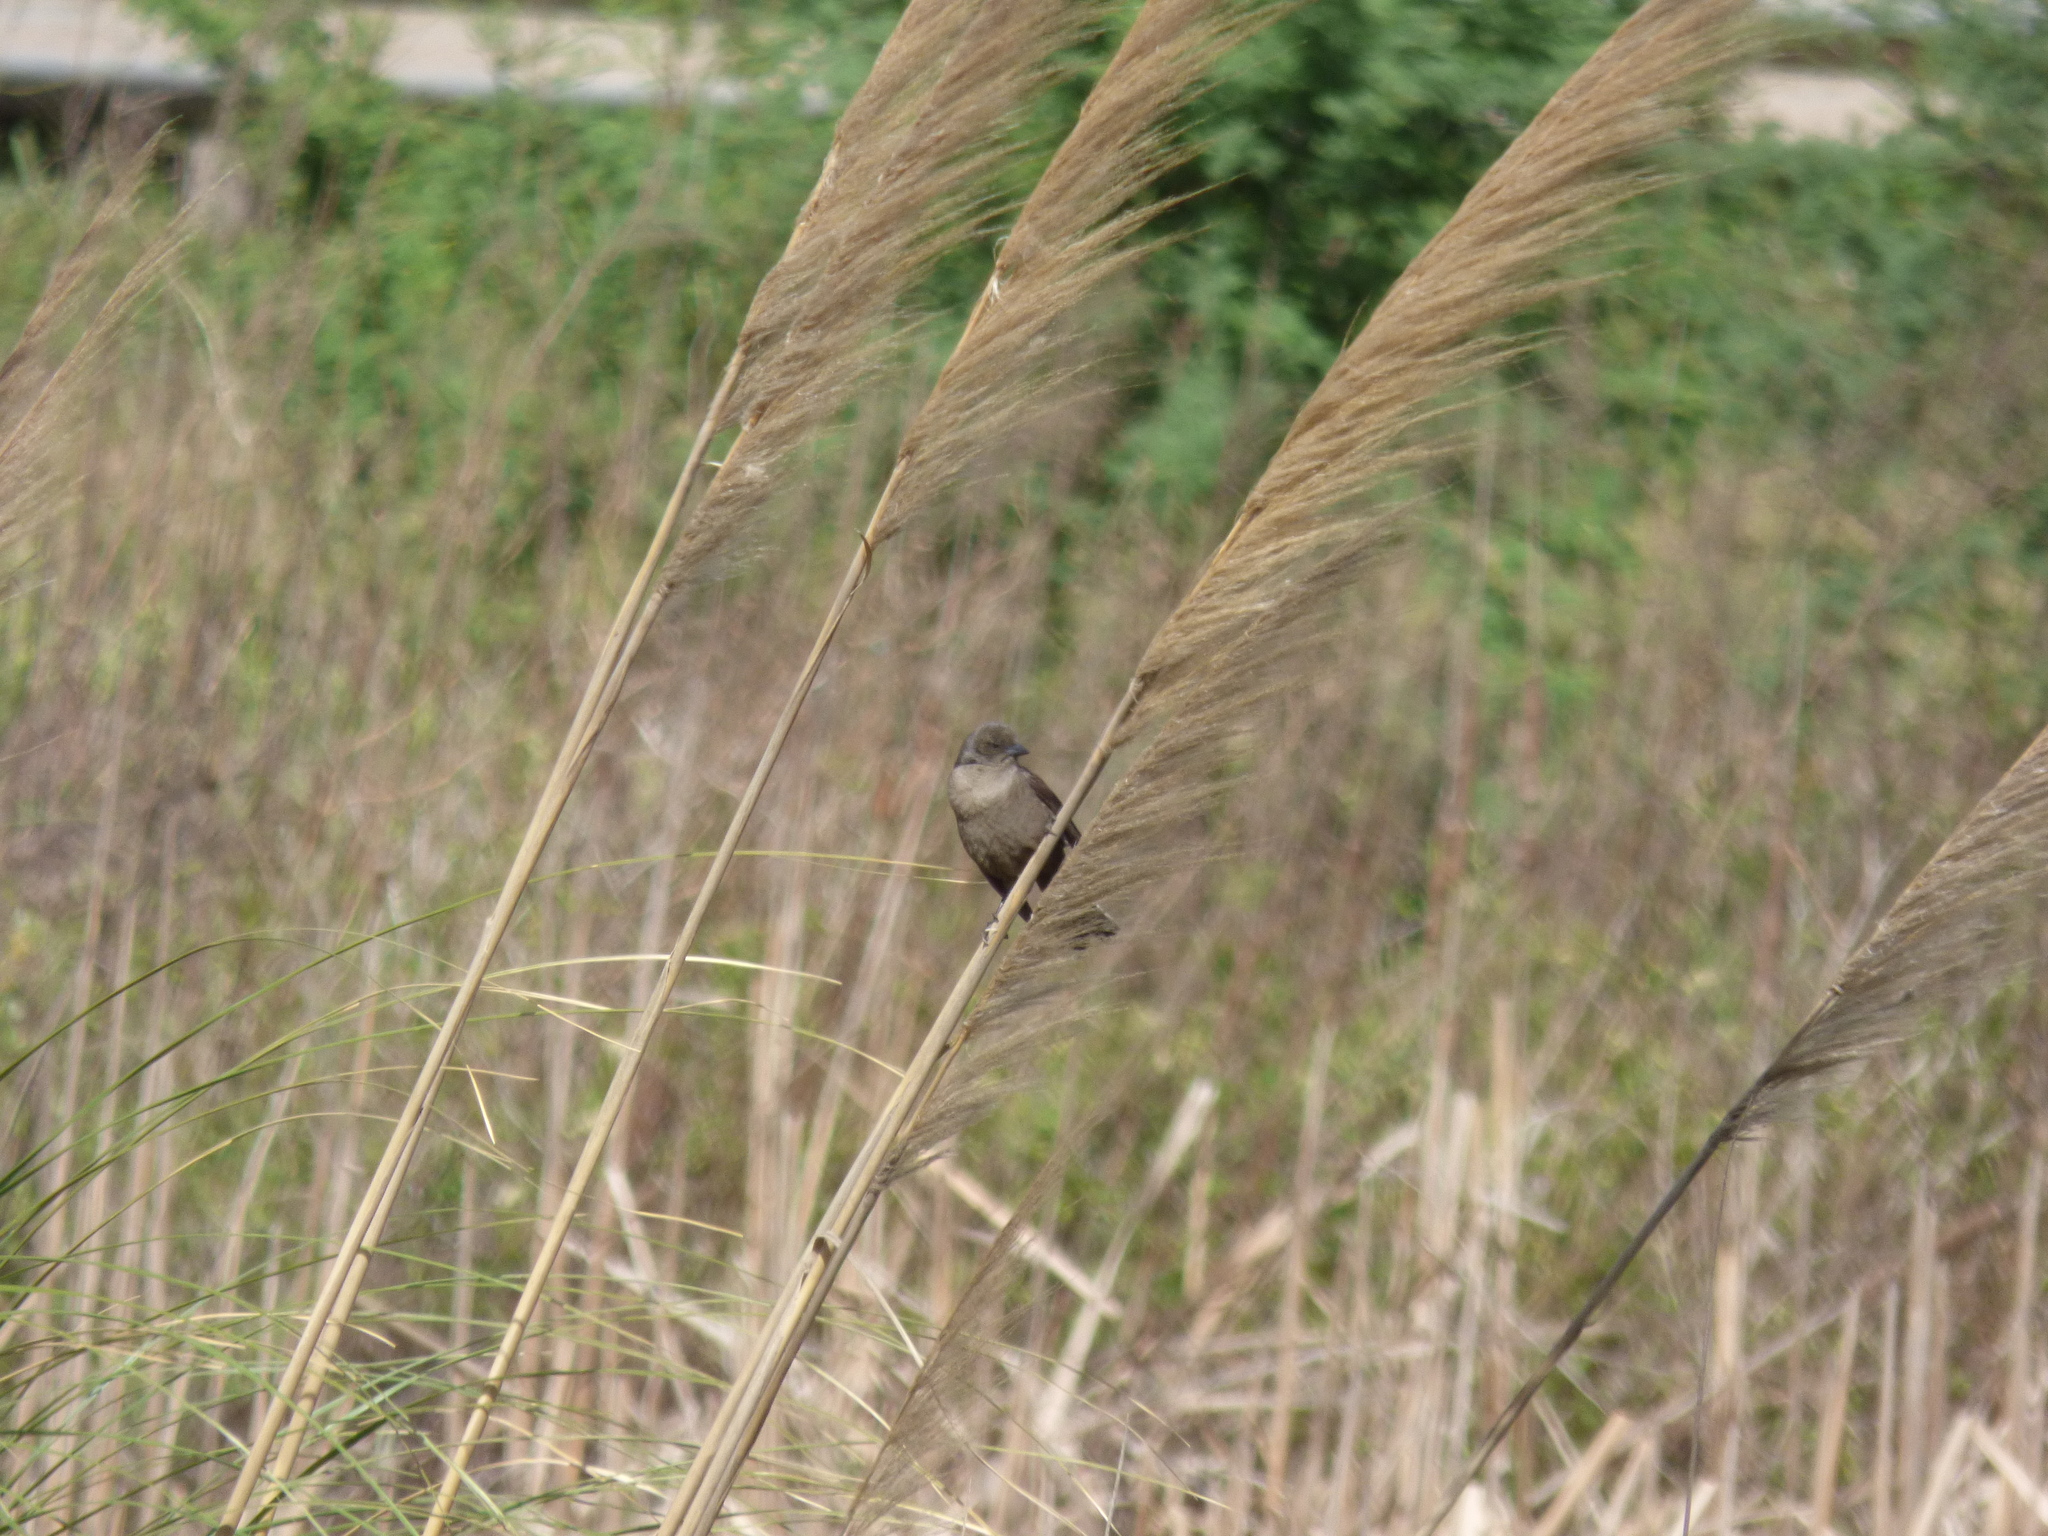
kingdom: Animalia
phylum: Chordata
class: Aves
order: Passeriformes
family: Icteridae
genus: Molothrus
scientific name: Molothrus bonariensis
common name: Shiny cowbird
